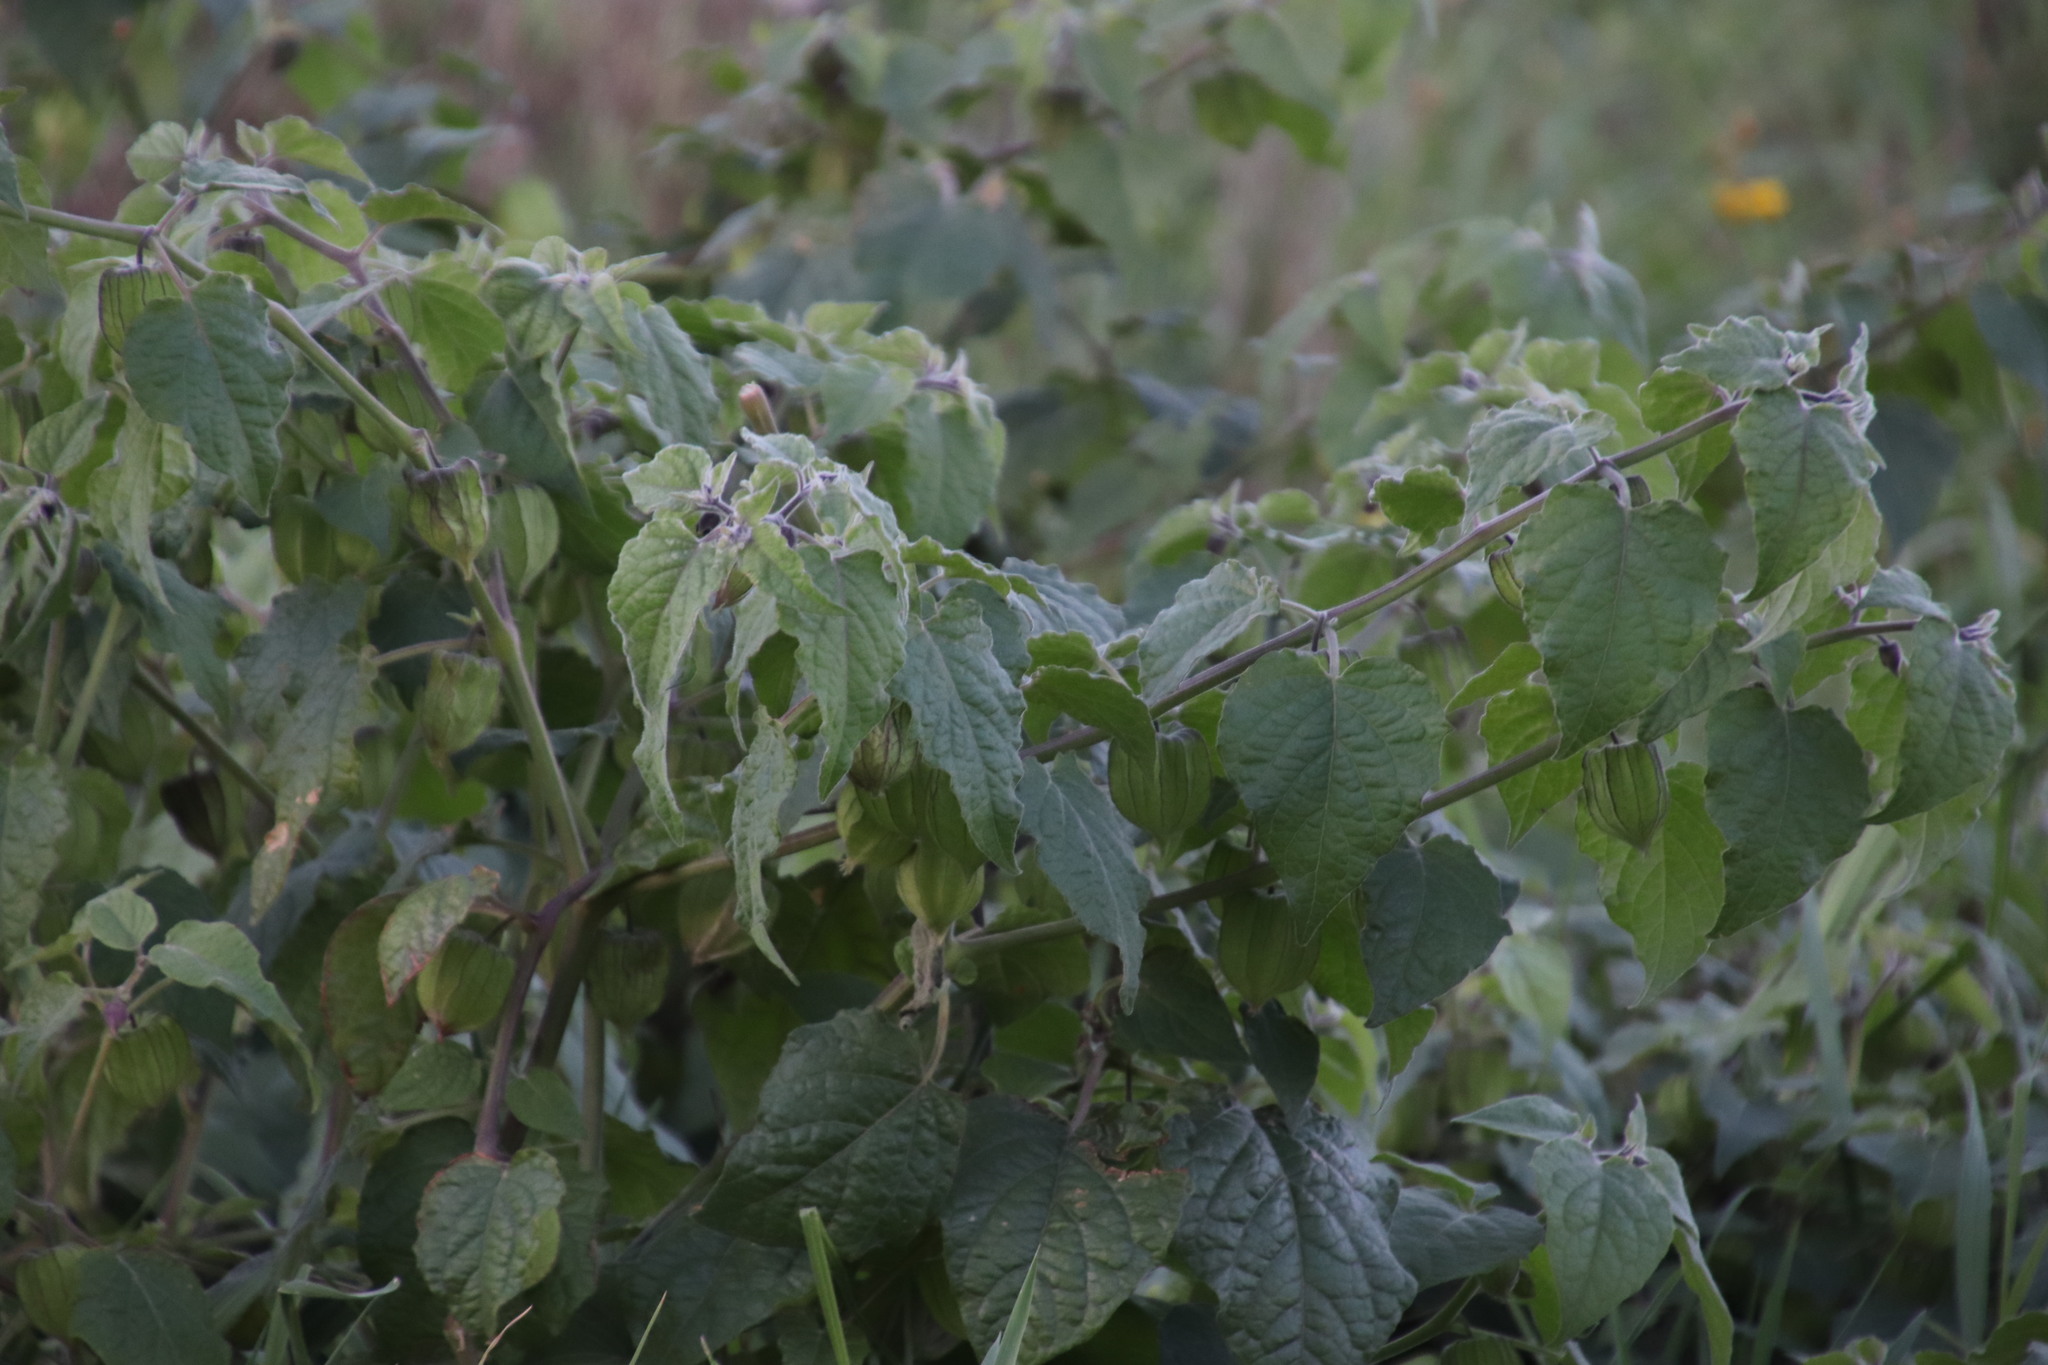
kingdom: Plantae
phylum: Tracheophyta
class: Magnoliopsida
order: Solanales
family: Solanaceae
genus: Physalis
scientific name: Physalis peruviana
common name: Cape-gooseberry
